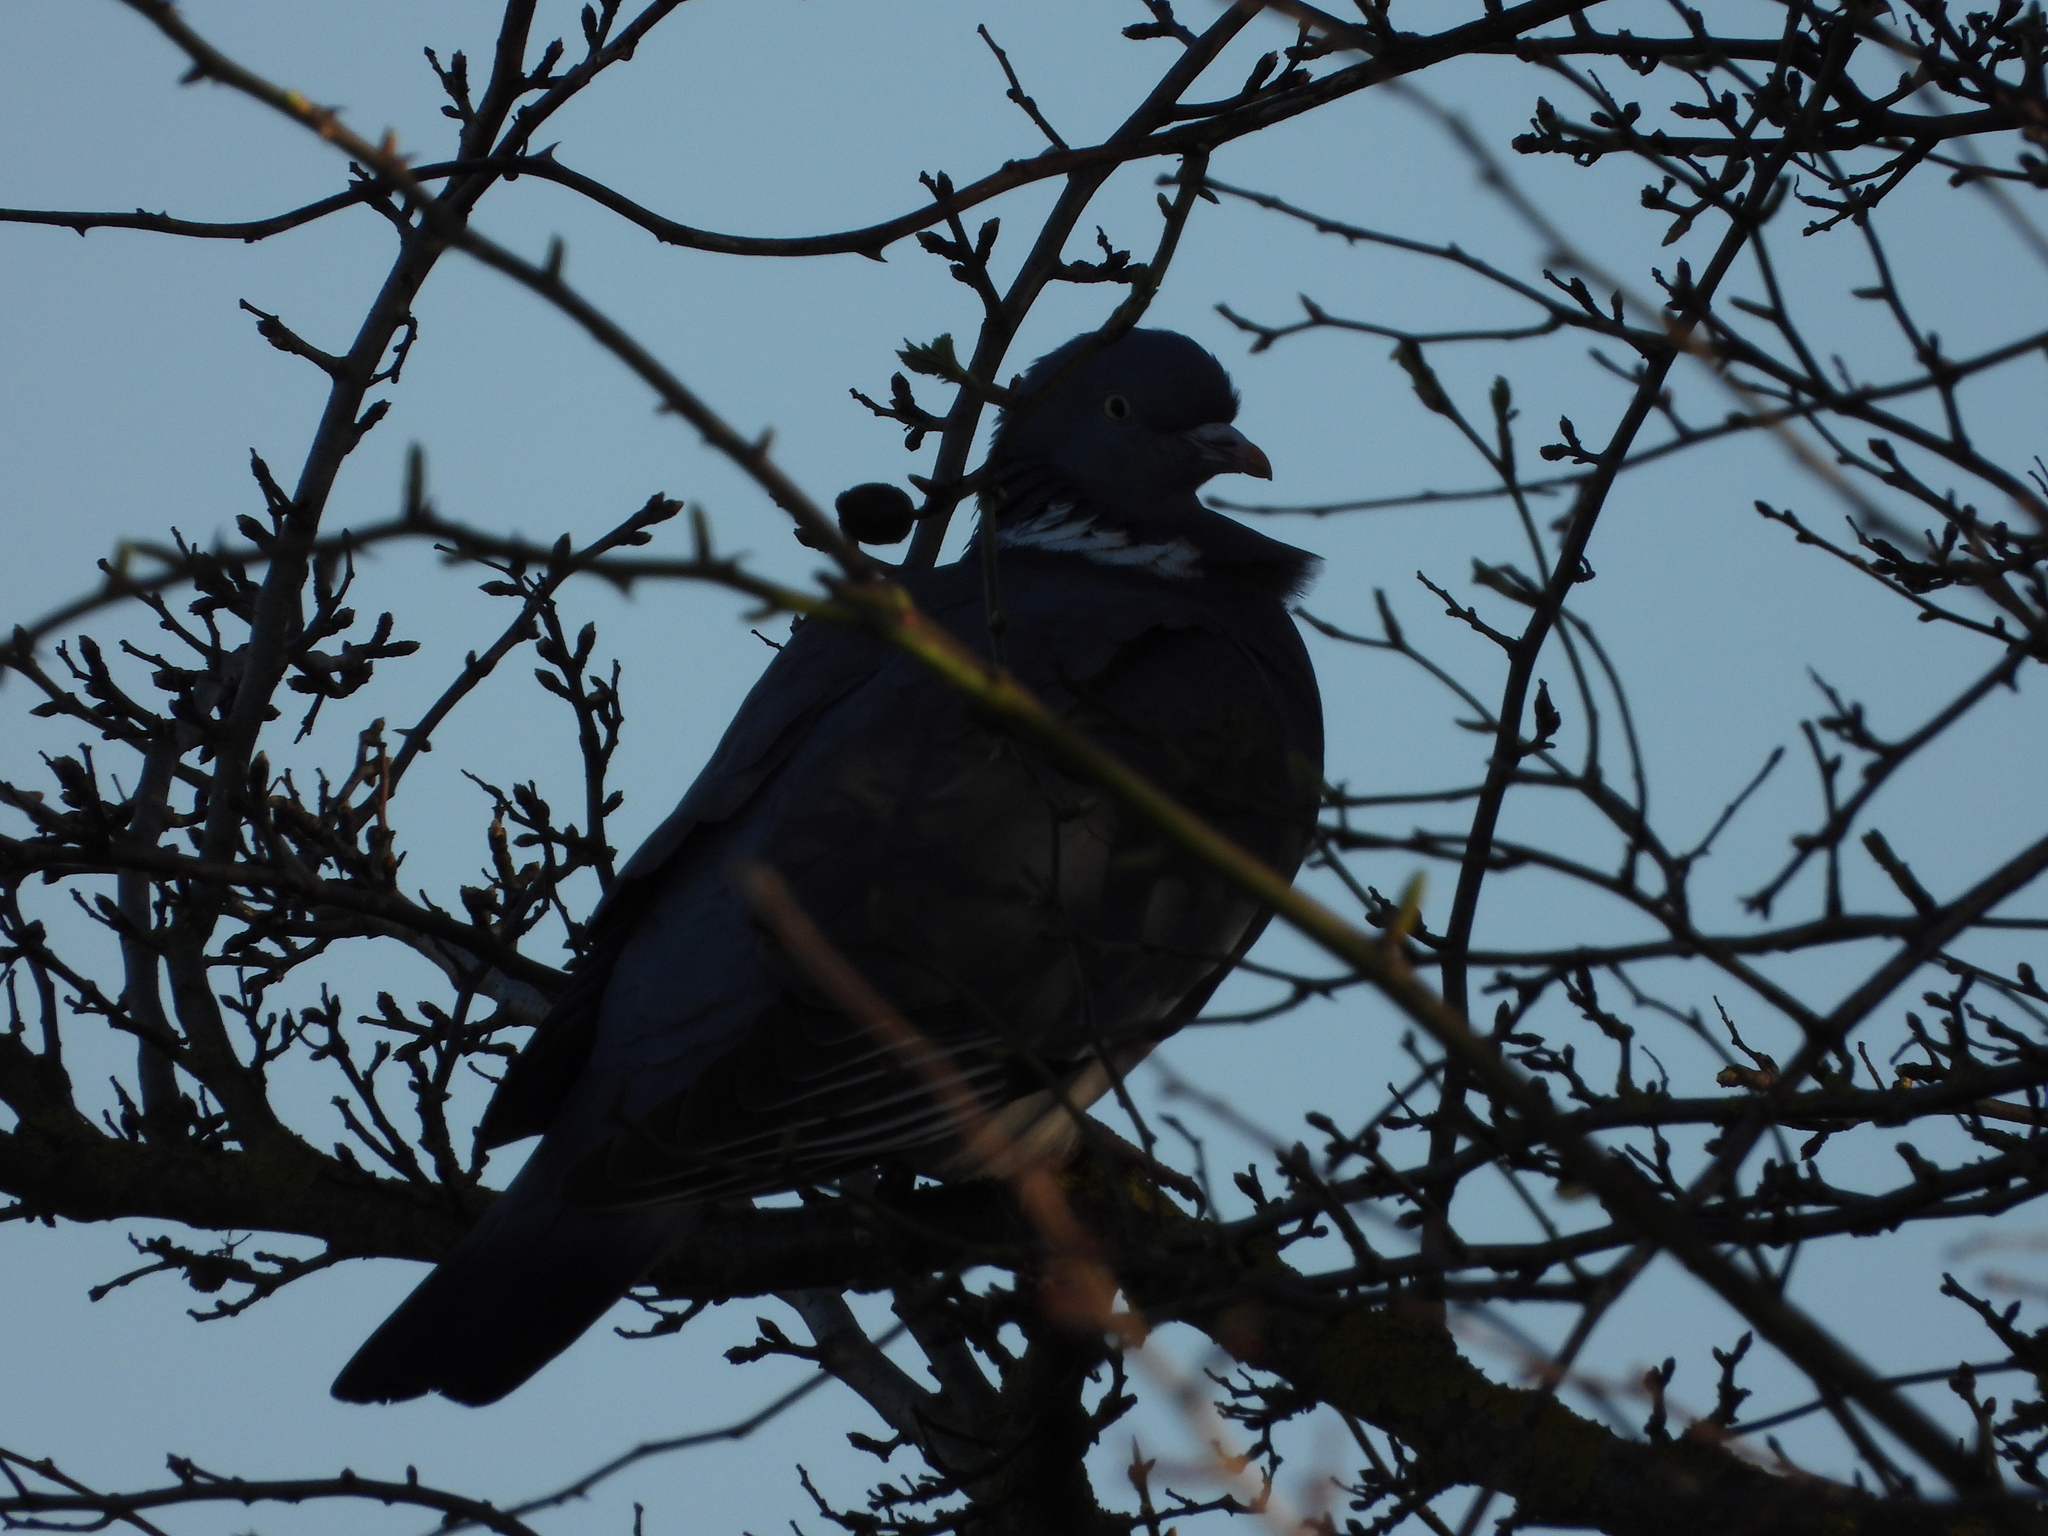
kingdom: Animalia
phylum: Chordata
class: Aves
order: Columbiformes
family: Columbidae
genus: Columba
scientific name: Columba palumbus
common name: Common wood pigeon
